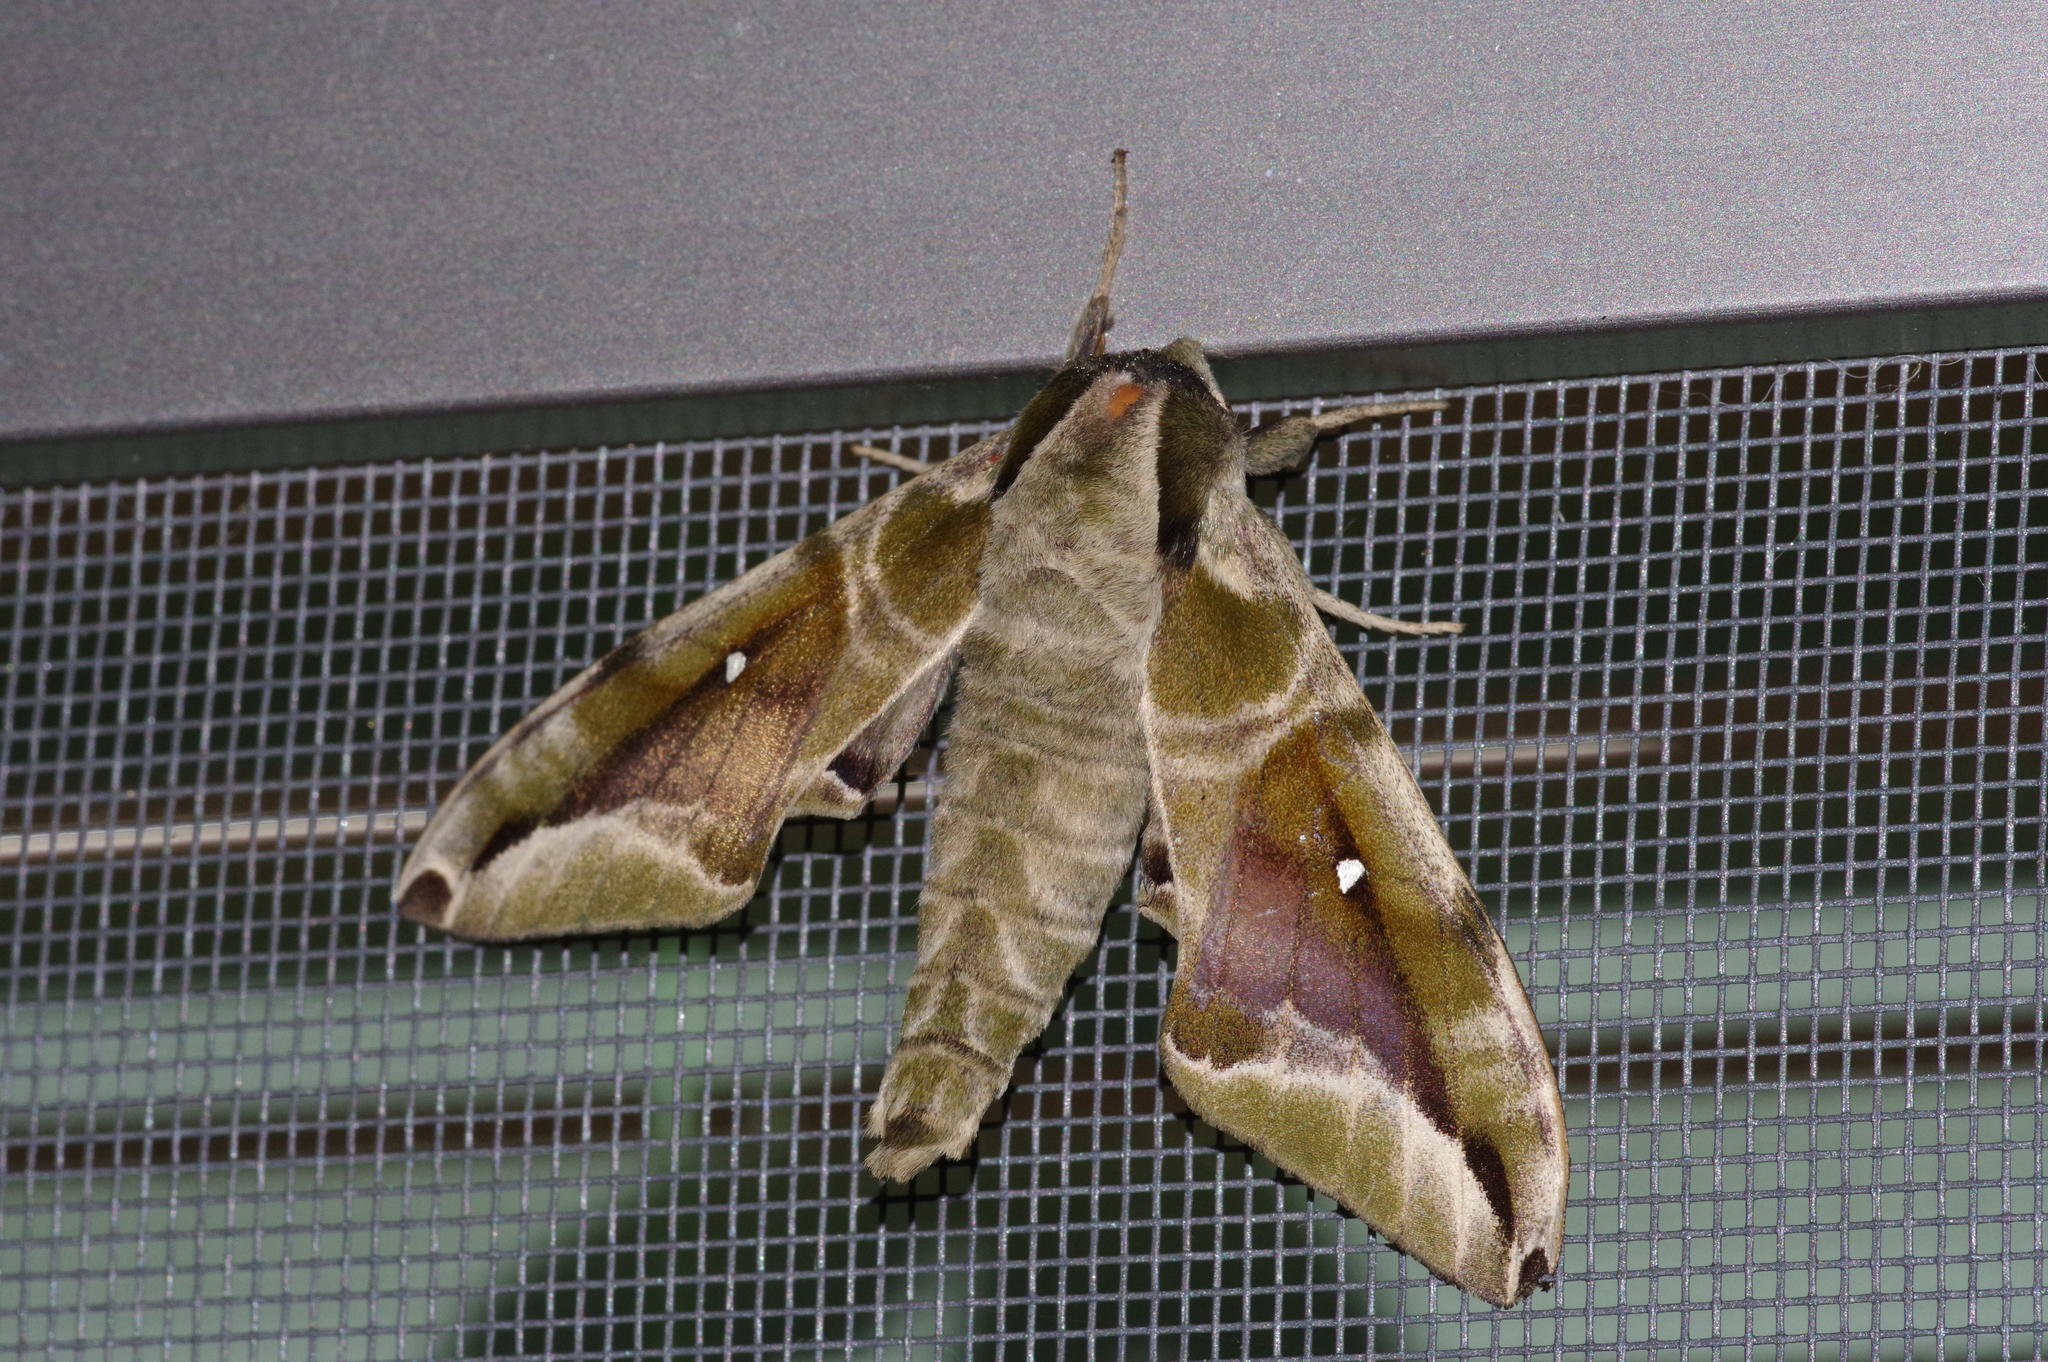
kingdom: Animalia
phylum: Arthropoda
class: Insecta
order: Lepidoptera
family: Sphingidae
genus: Parum
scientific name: Parum colligata
